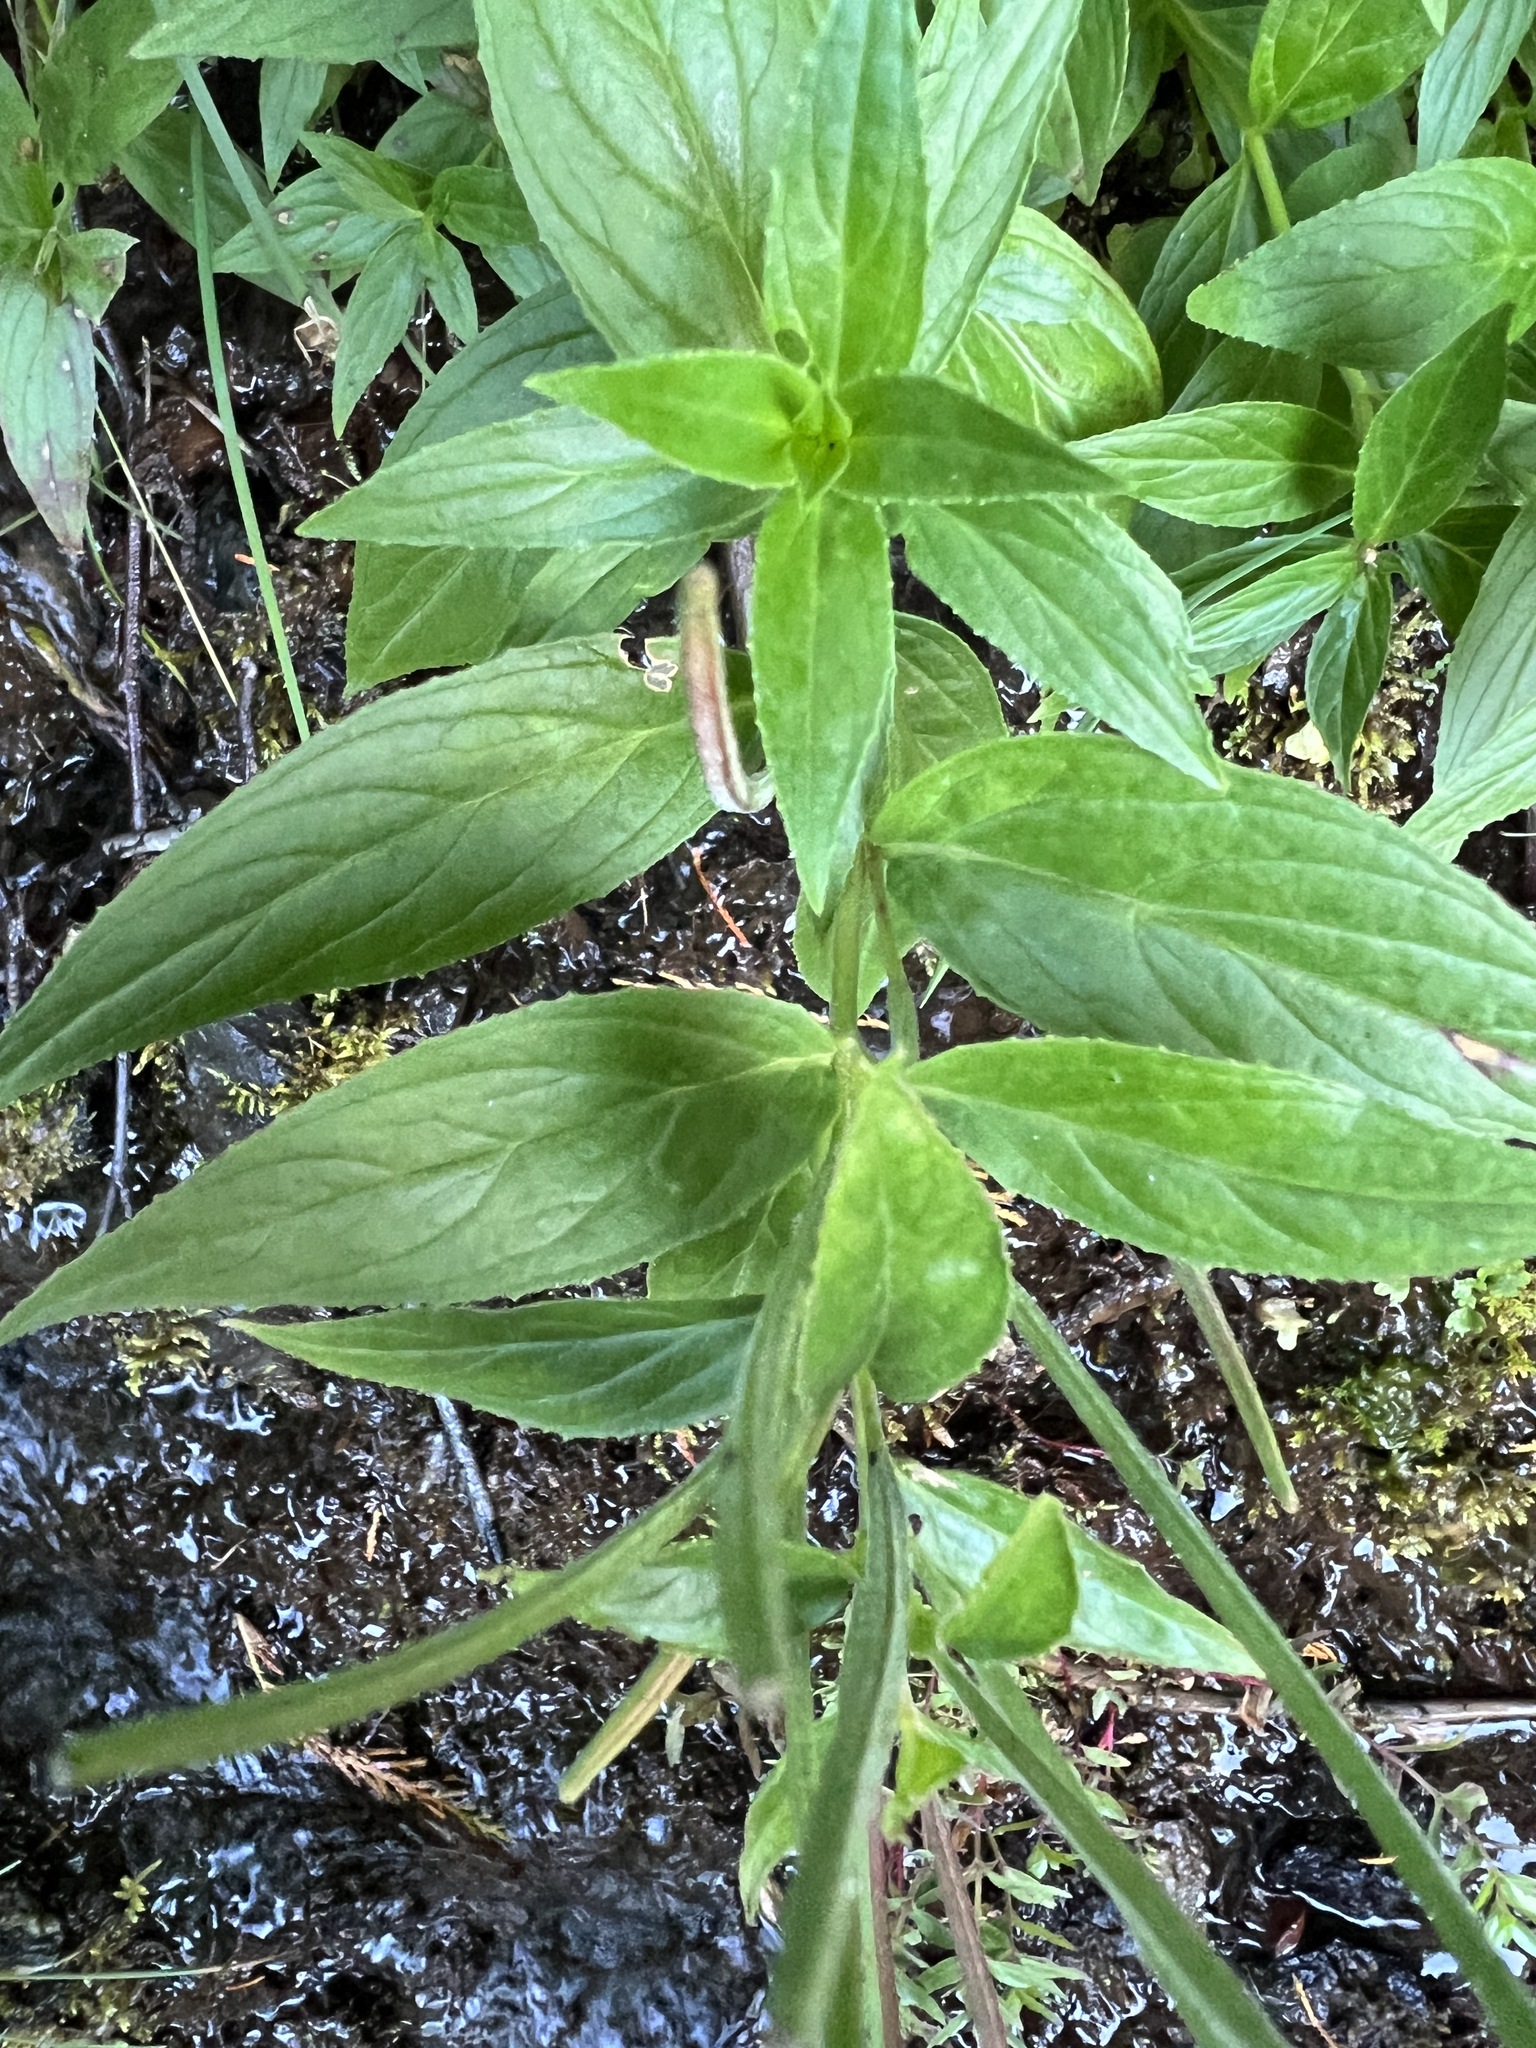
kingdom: Plantae
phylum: Tracheophyta
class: Magnoliopsida
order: Myrtales
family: Onagraceae
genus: Epilobium
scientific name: Epilobium luteum
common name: Yellow willowherb
